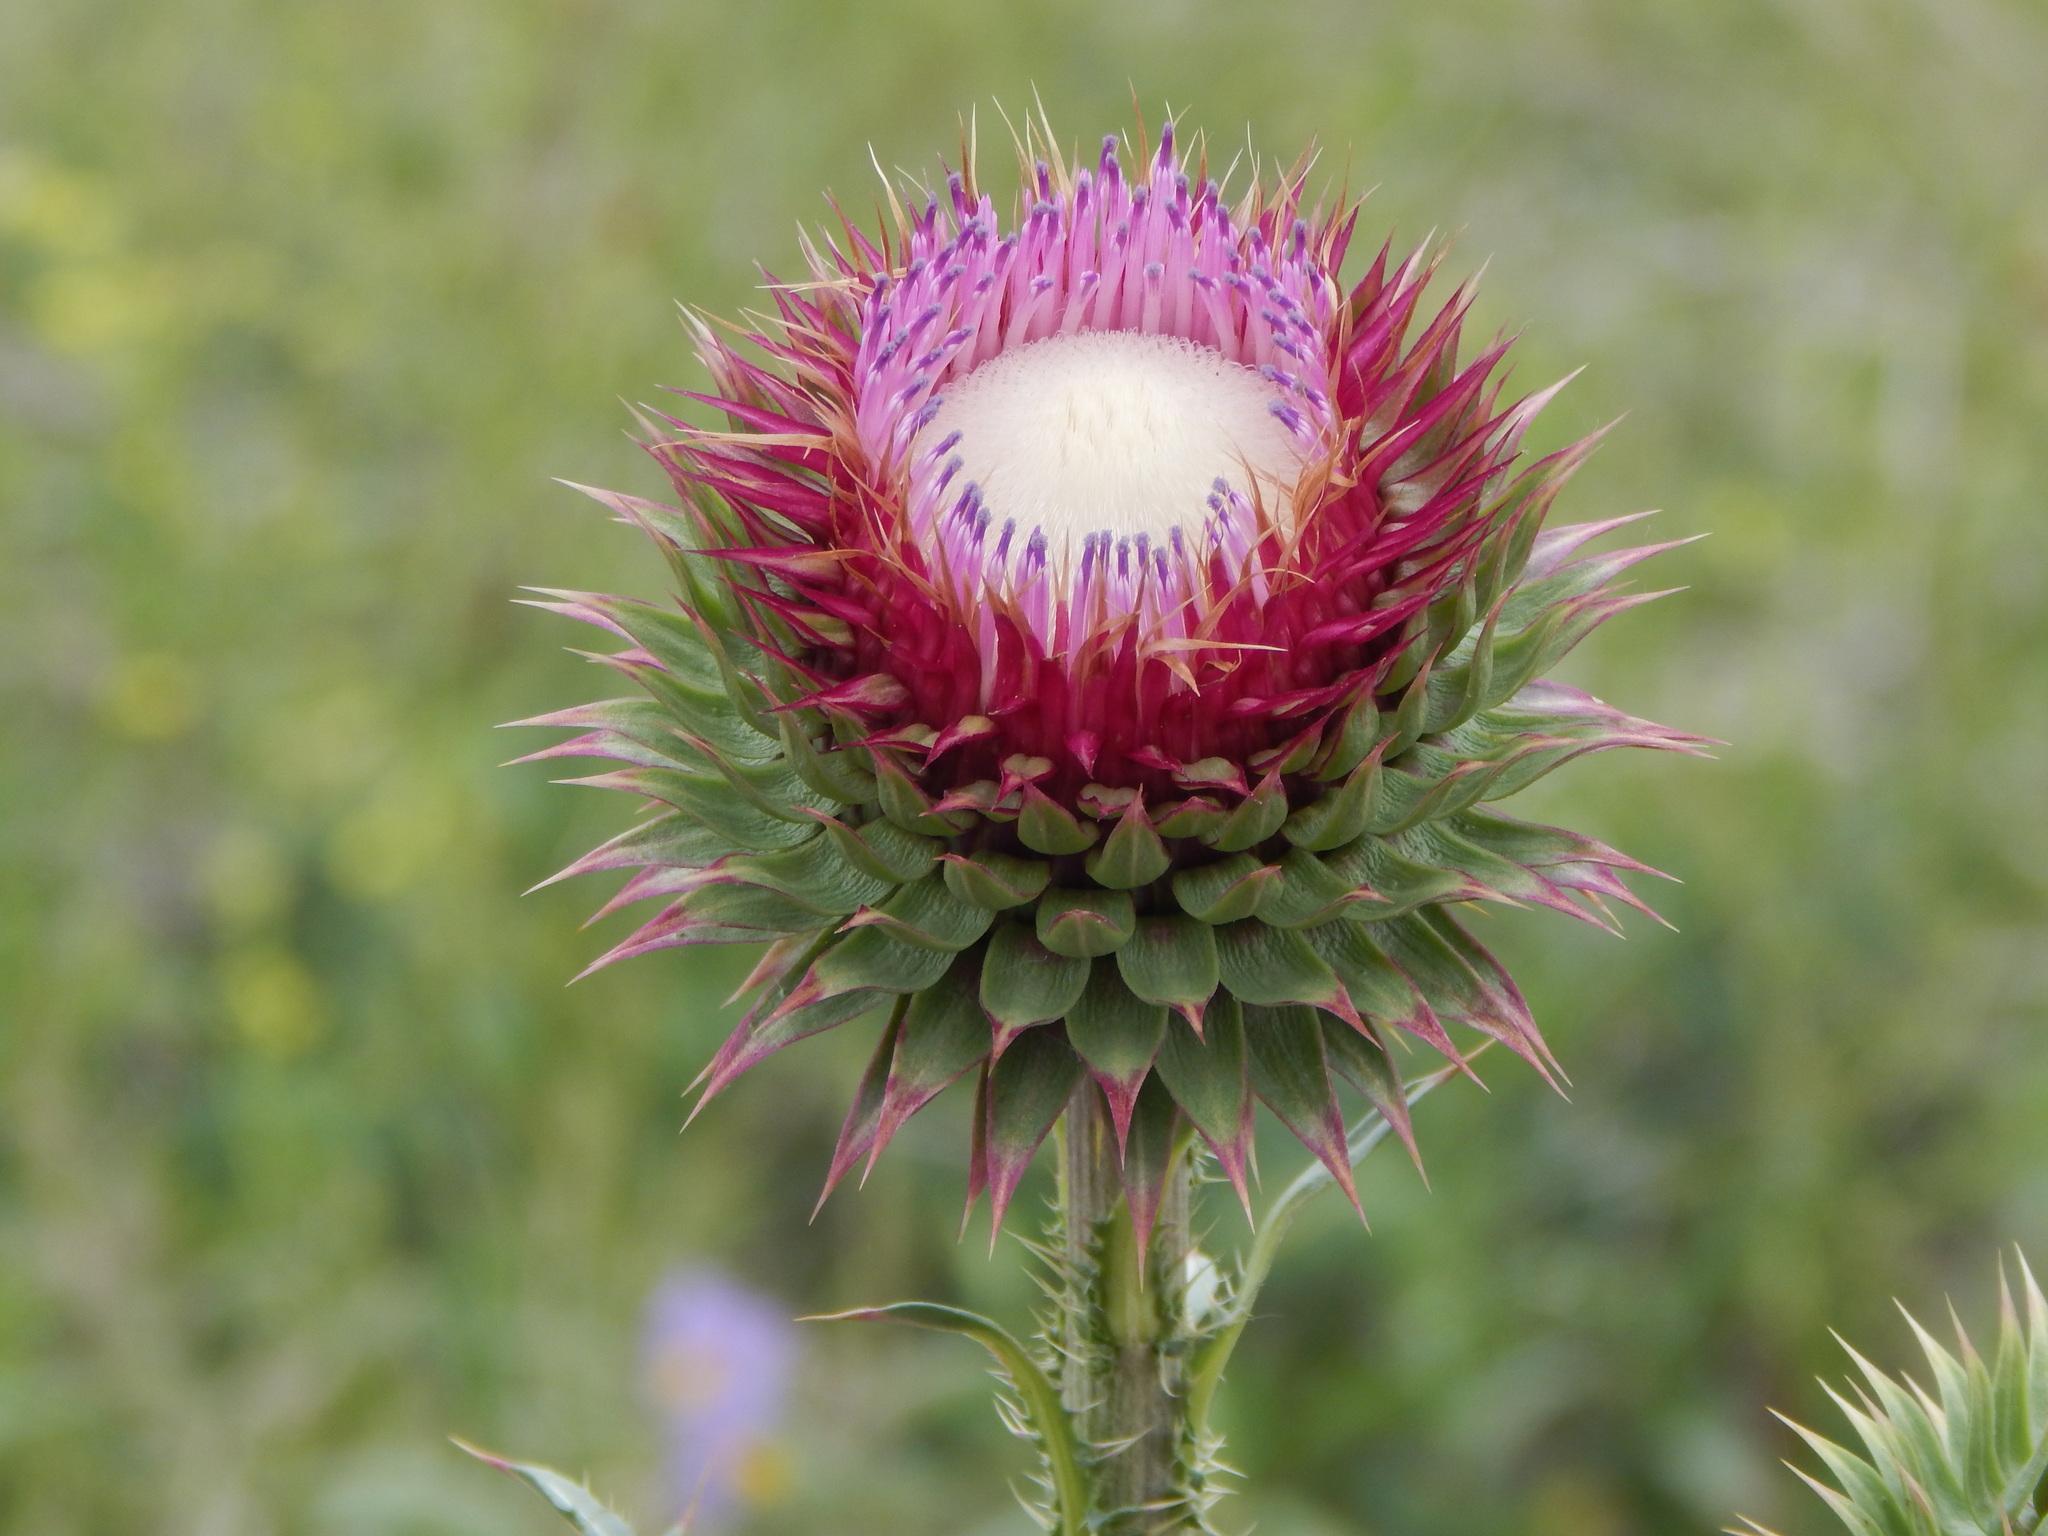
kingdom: Plantae
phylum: Tracheophyta
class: Magnoliopsida
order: Asterales
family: Asteraceae
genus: Carduus
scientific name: Carduus nutans
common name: Musk thistle
